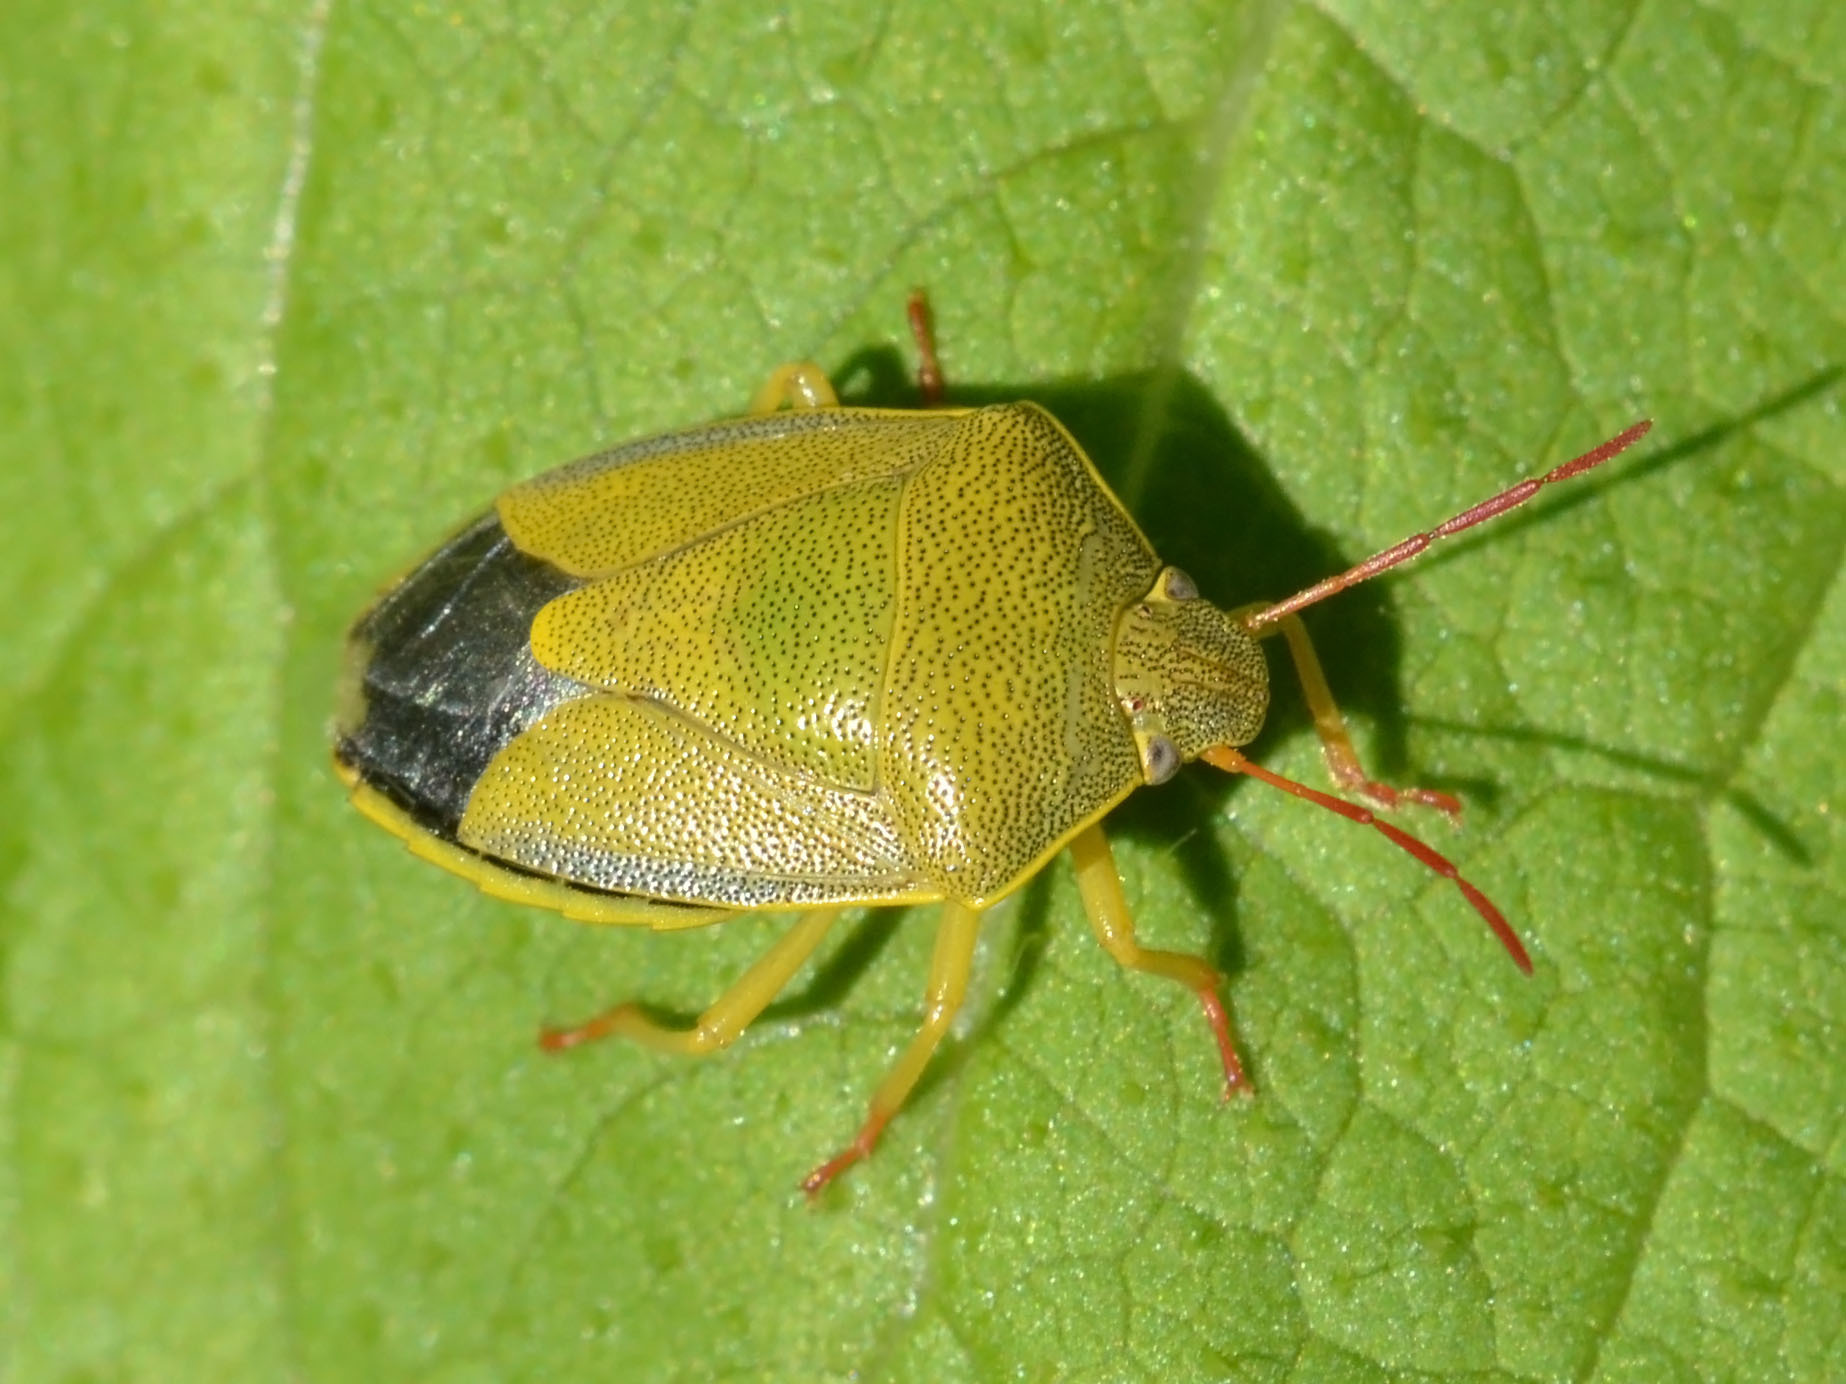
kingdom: Animalia
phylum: Arthropoda
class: Insecta
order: Hemiptera
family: Pentatomidae
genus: Piezodorus
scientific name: Piezodorus lituratus
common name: Stink bug
